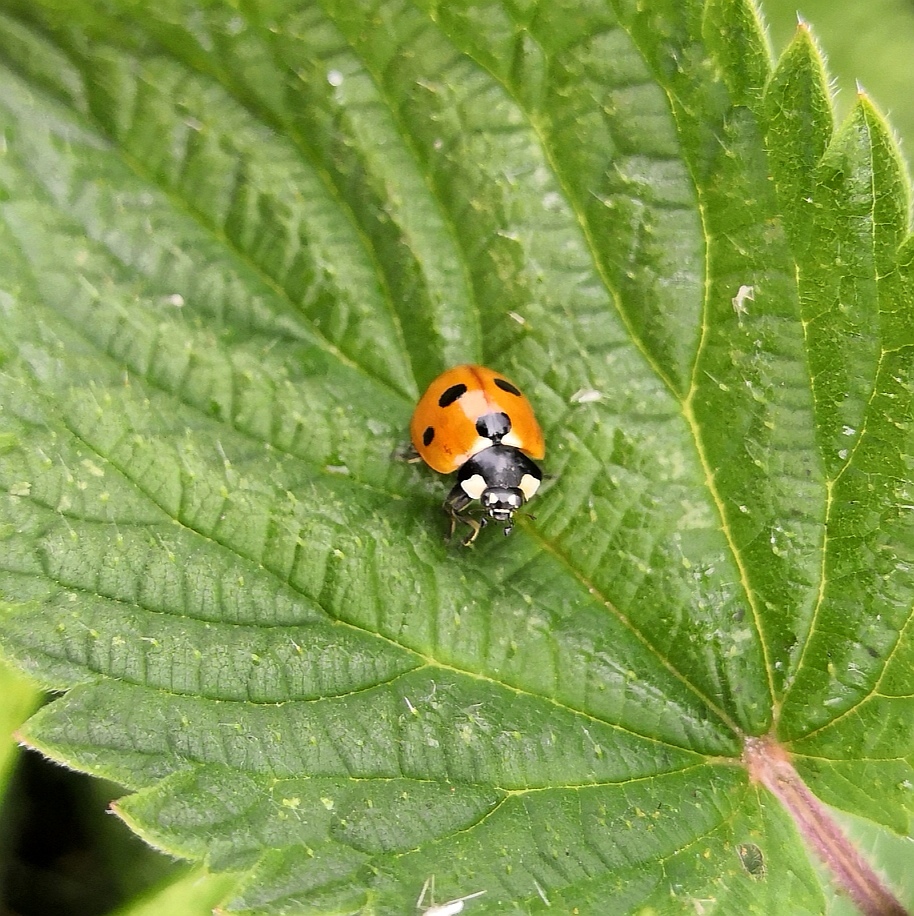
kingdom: Animalia
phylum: Arthropoda
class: Insecta
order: Coleoptera
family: Coccinellidae
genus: Coccinella
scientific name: Coccinella septempunctata
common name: Sevenspotted lady beetle
